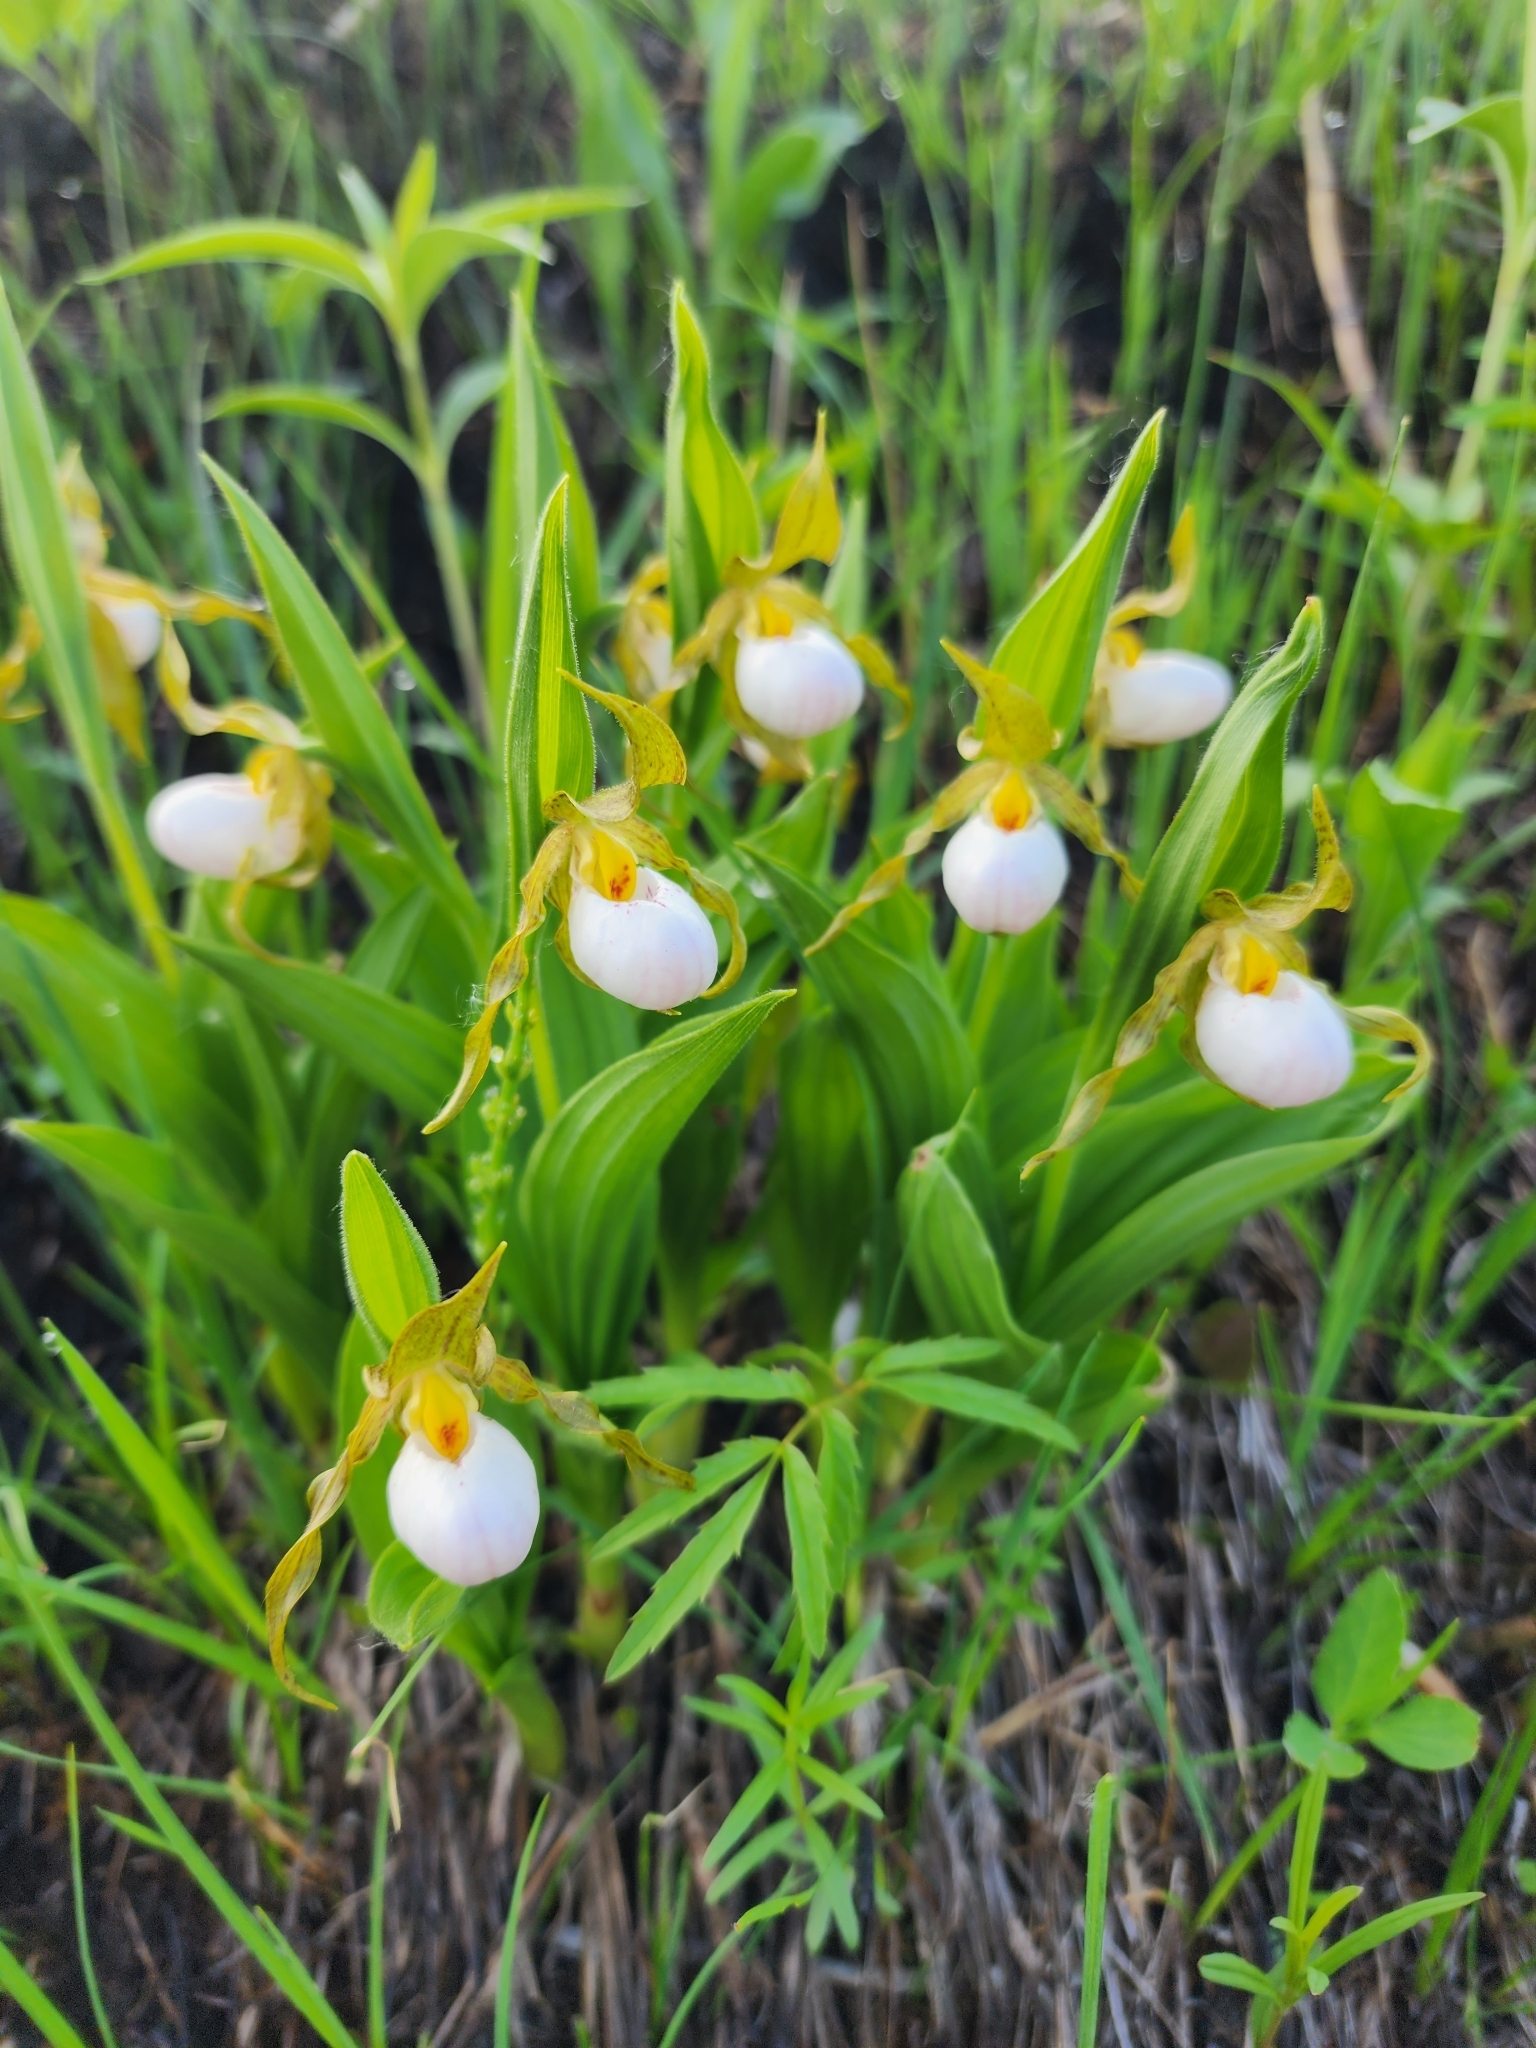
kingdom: Plantae
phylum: Tracheophyta
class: Liliopsida
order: Asparagales
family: Orchidaceae
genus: Cypripedium
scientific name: Cypripedium candidum
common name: White lady's-slipper
